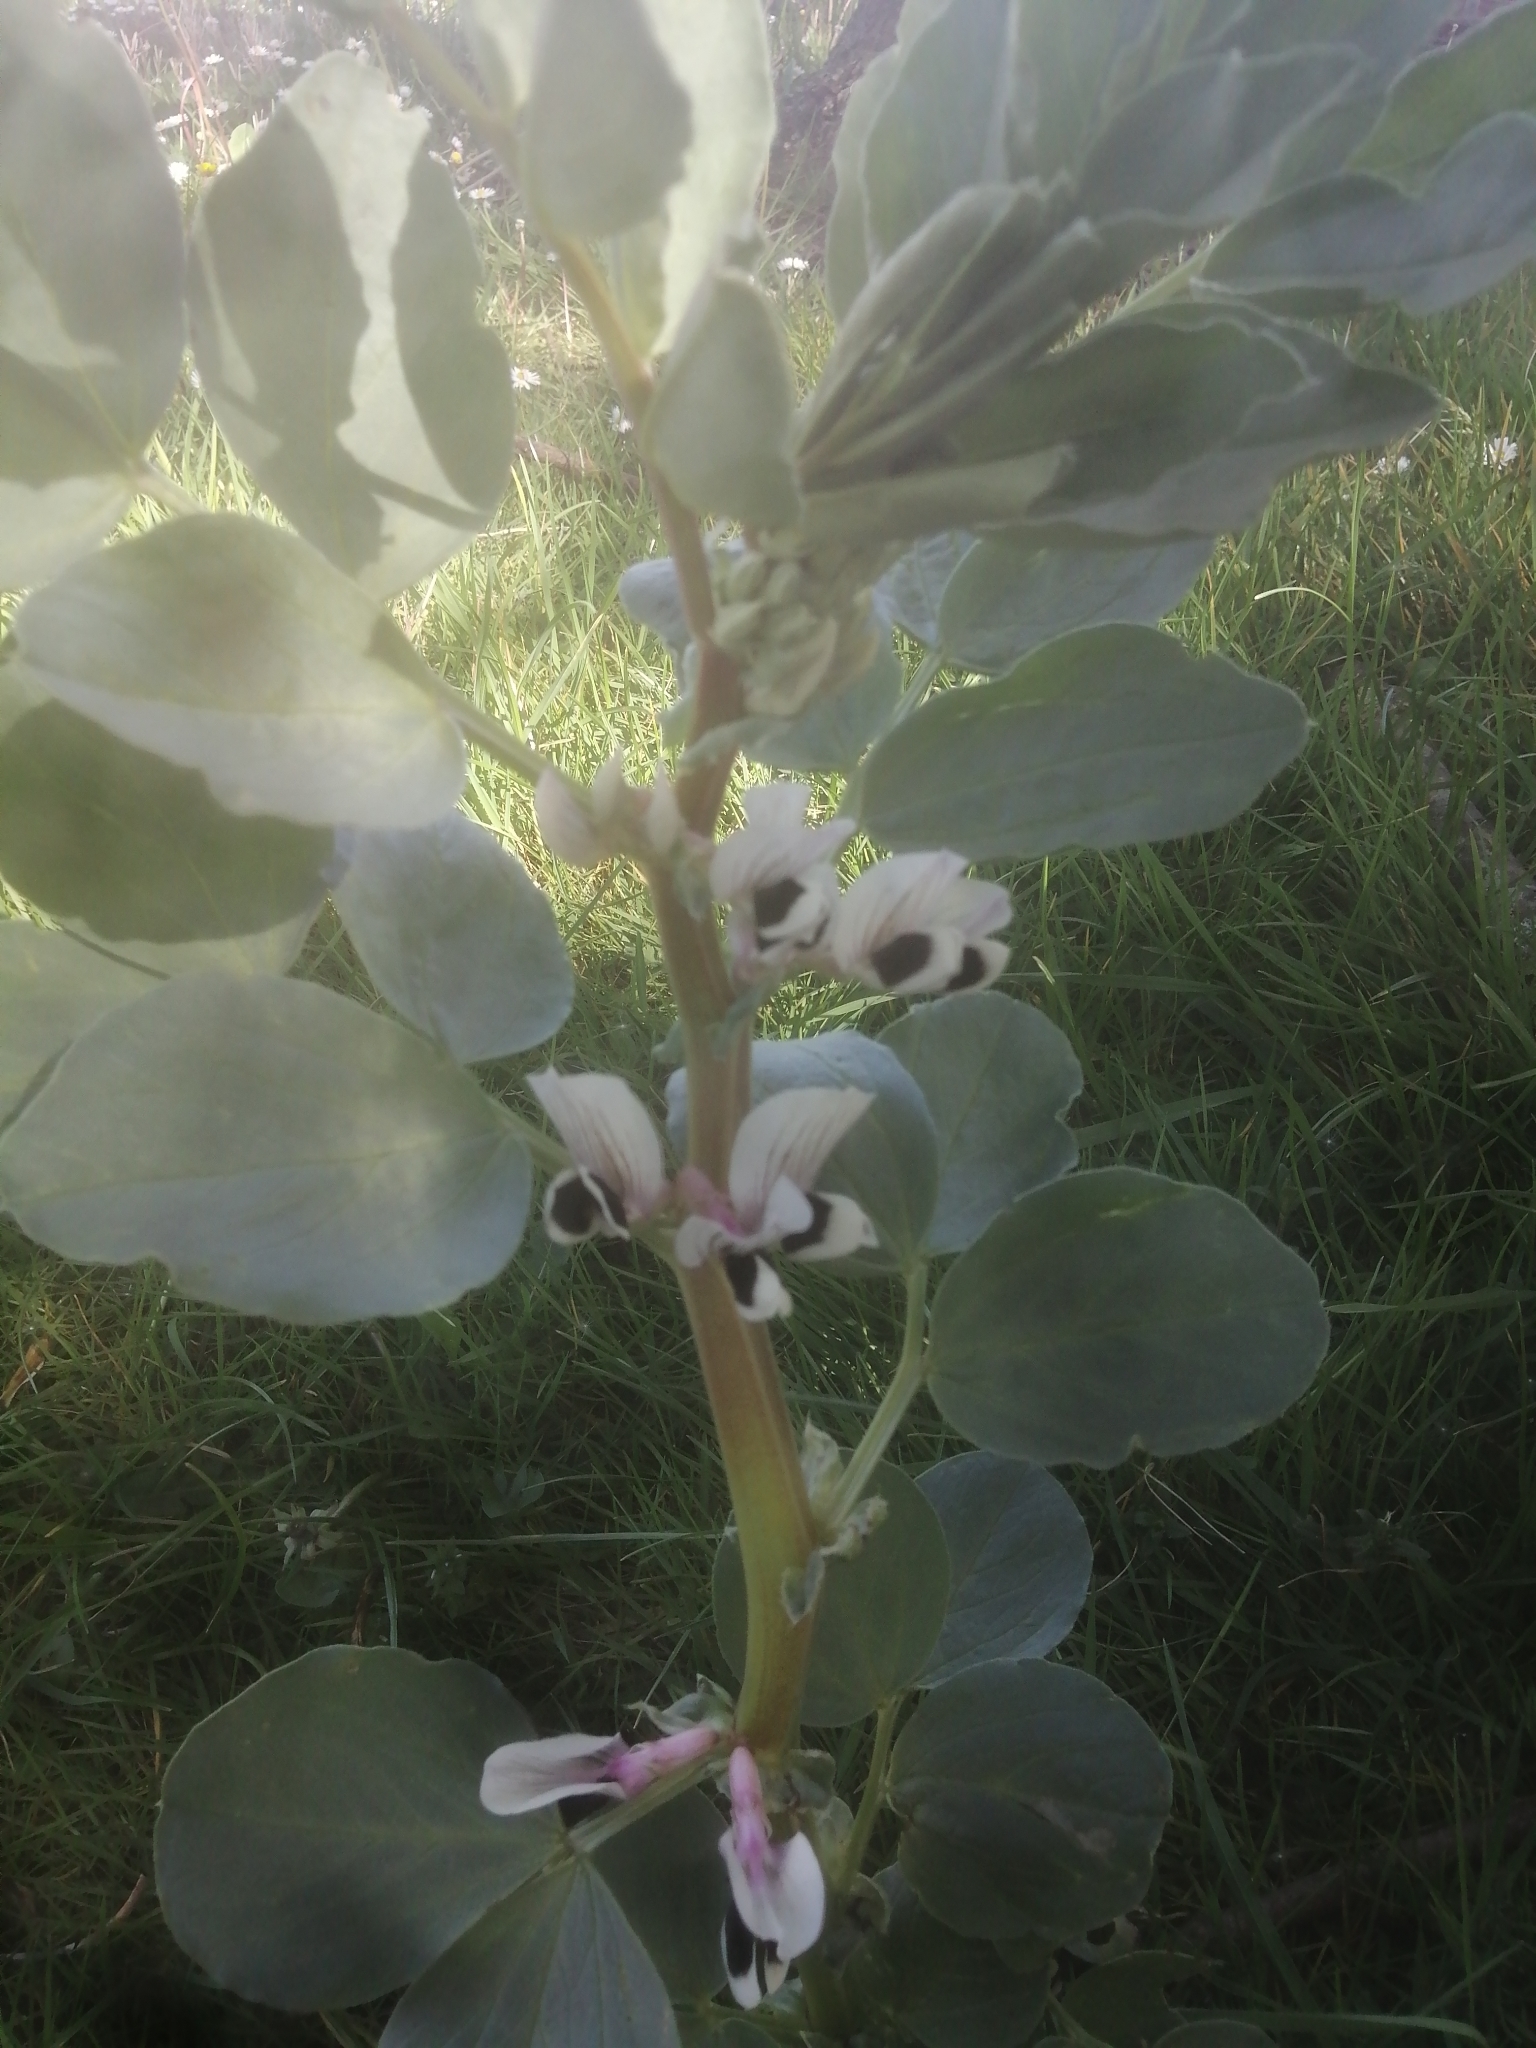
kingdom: Plantae
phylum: Tracheophyta
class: Magnoliopsida
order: Fabales
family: Fabaceae
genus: Vicia
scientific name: Vicia faba
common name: Broad bean
